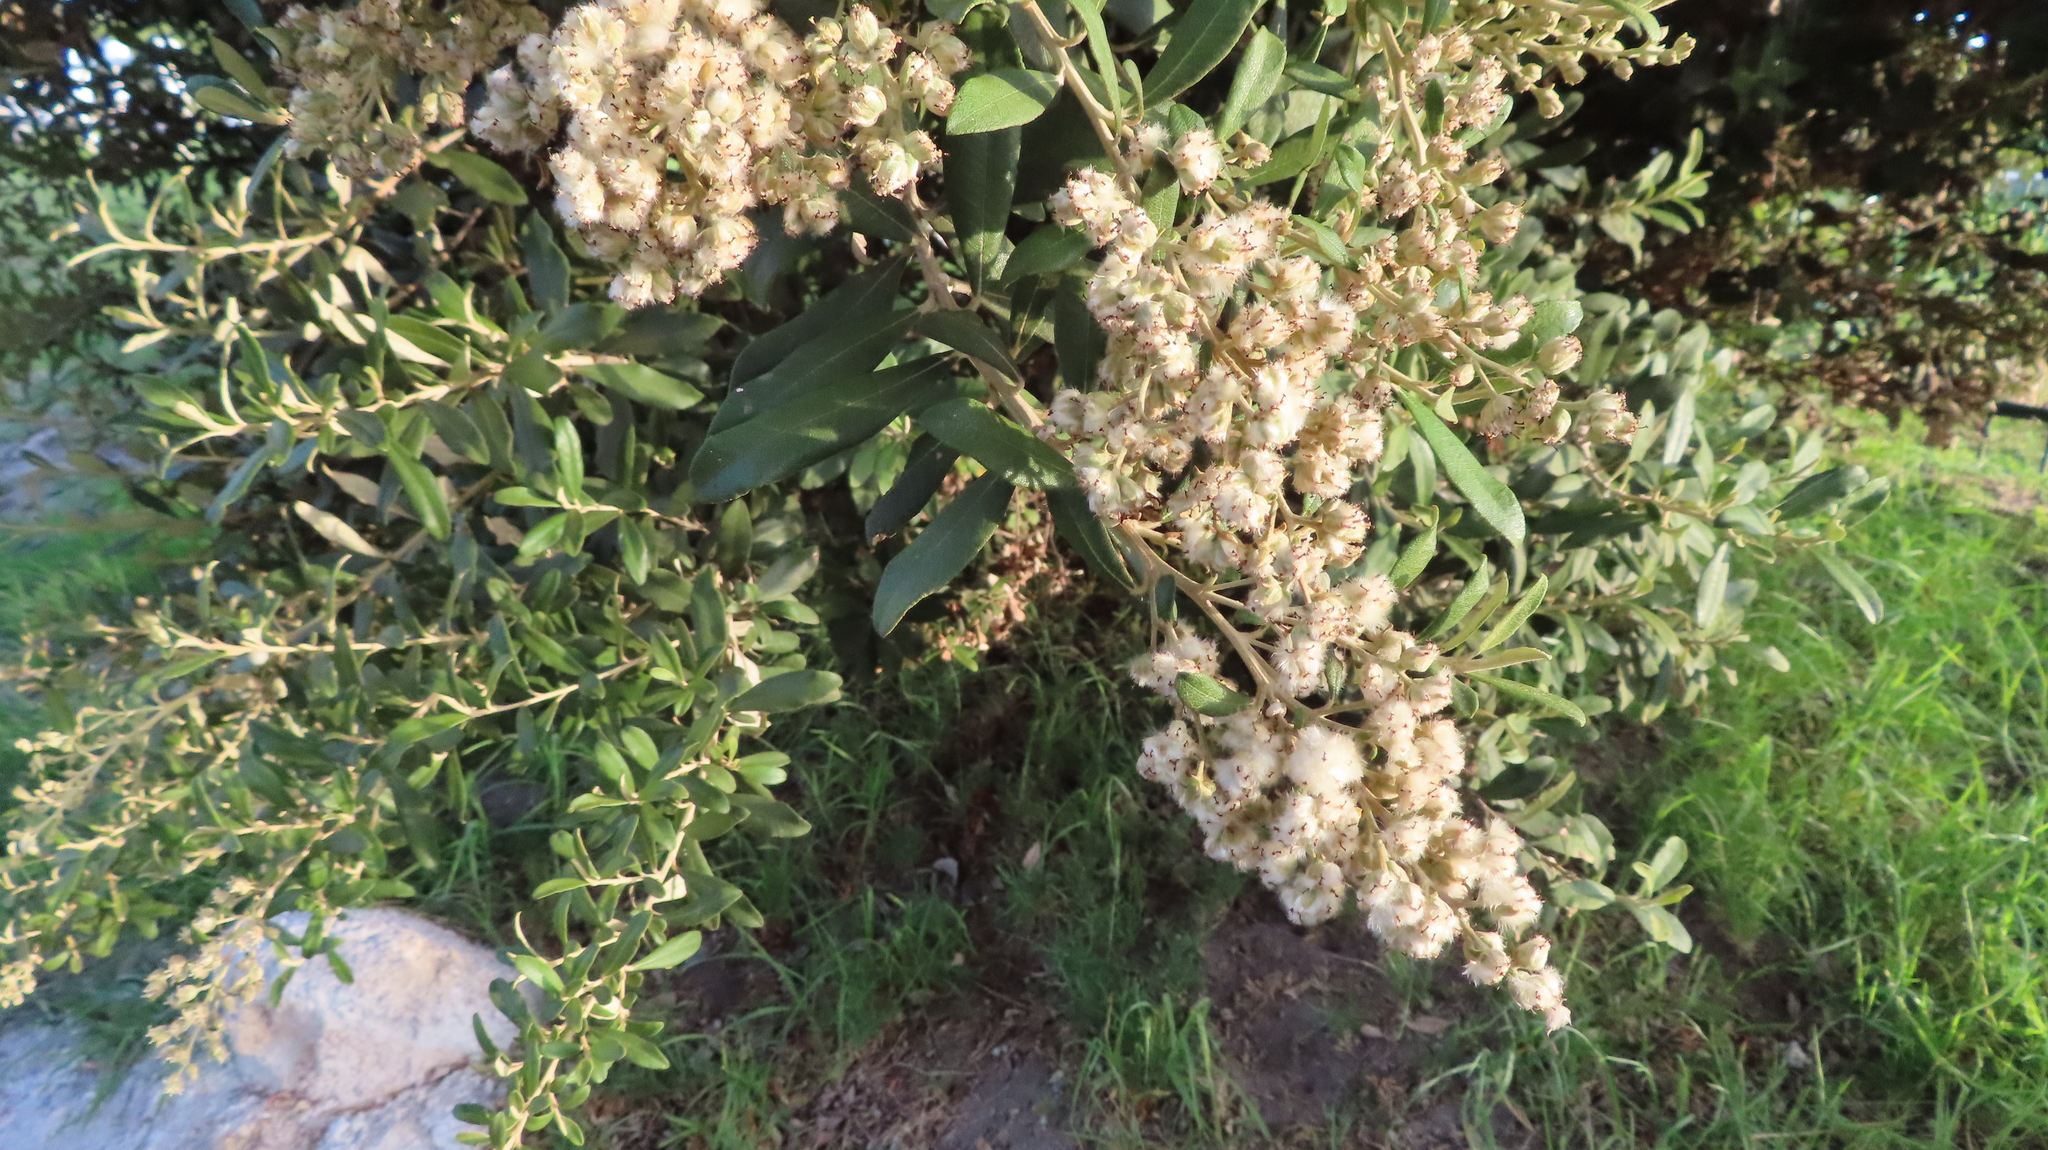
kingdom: Plantae
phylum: Tracheophyta
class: Magnoliopsida
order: Asterales
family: Asteraceae
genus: Tarchonanthus
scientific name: Tarchonanthus littoralis
